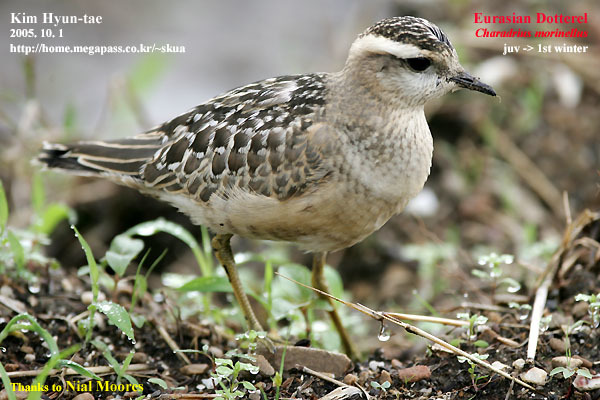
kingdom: Animalia
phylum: Chordata
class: Aves
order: Charadriiformes
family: Charadriidae
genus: Charadrius
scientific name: Charadrius morinellus
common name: Eurasian dotterel
